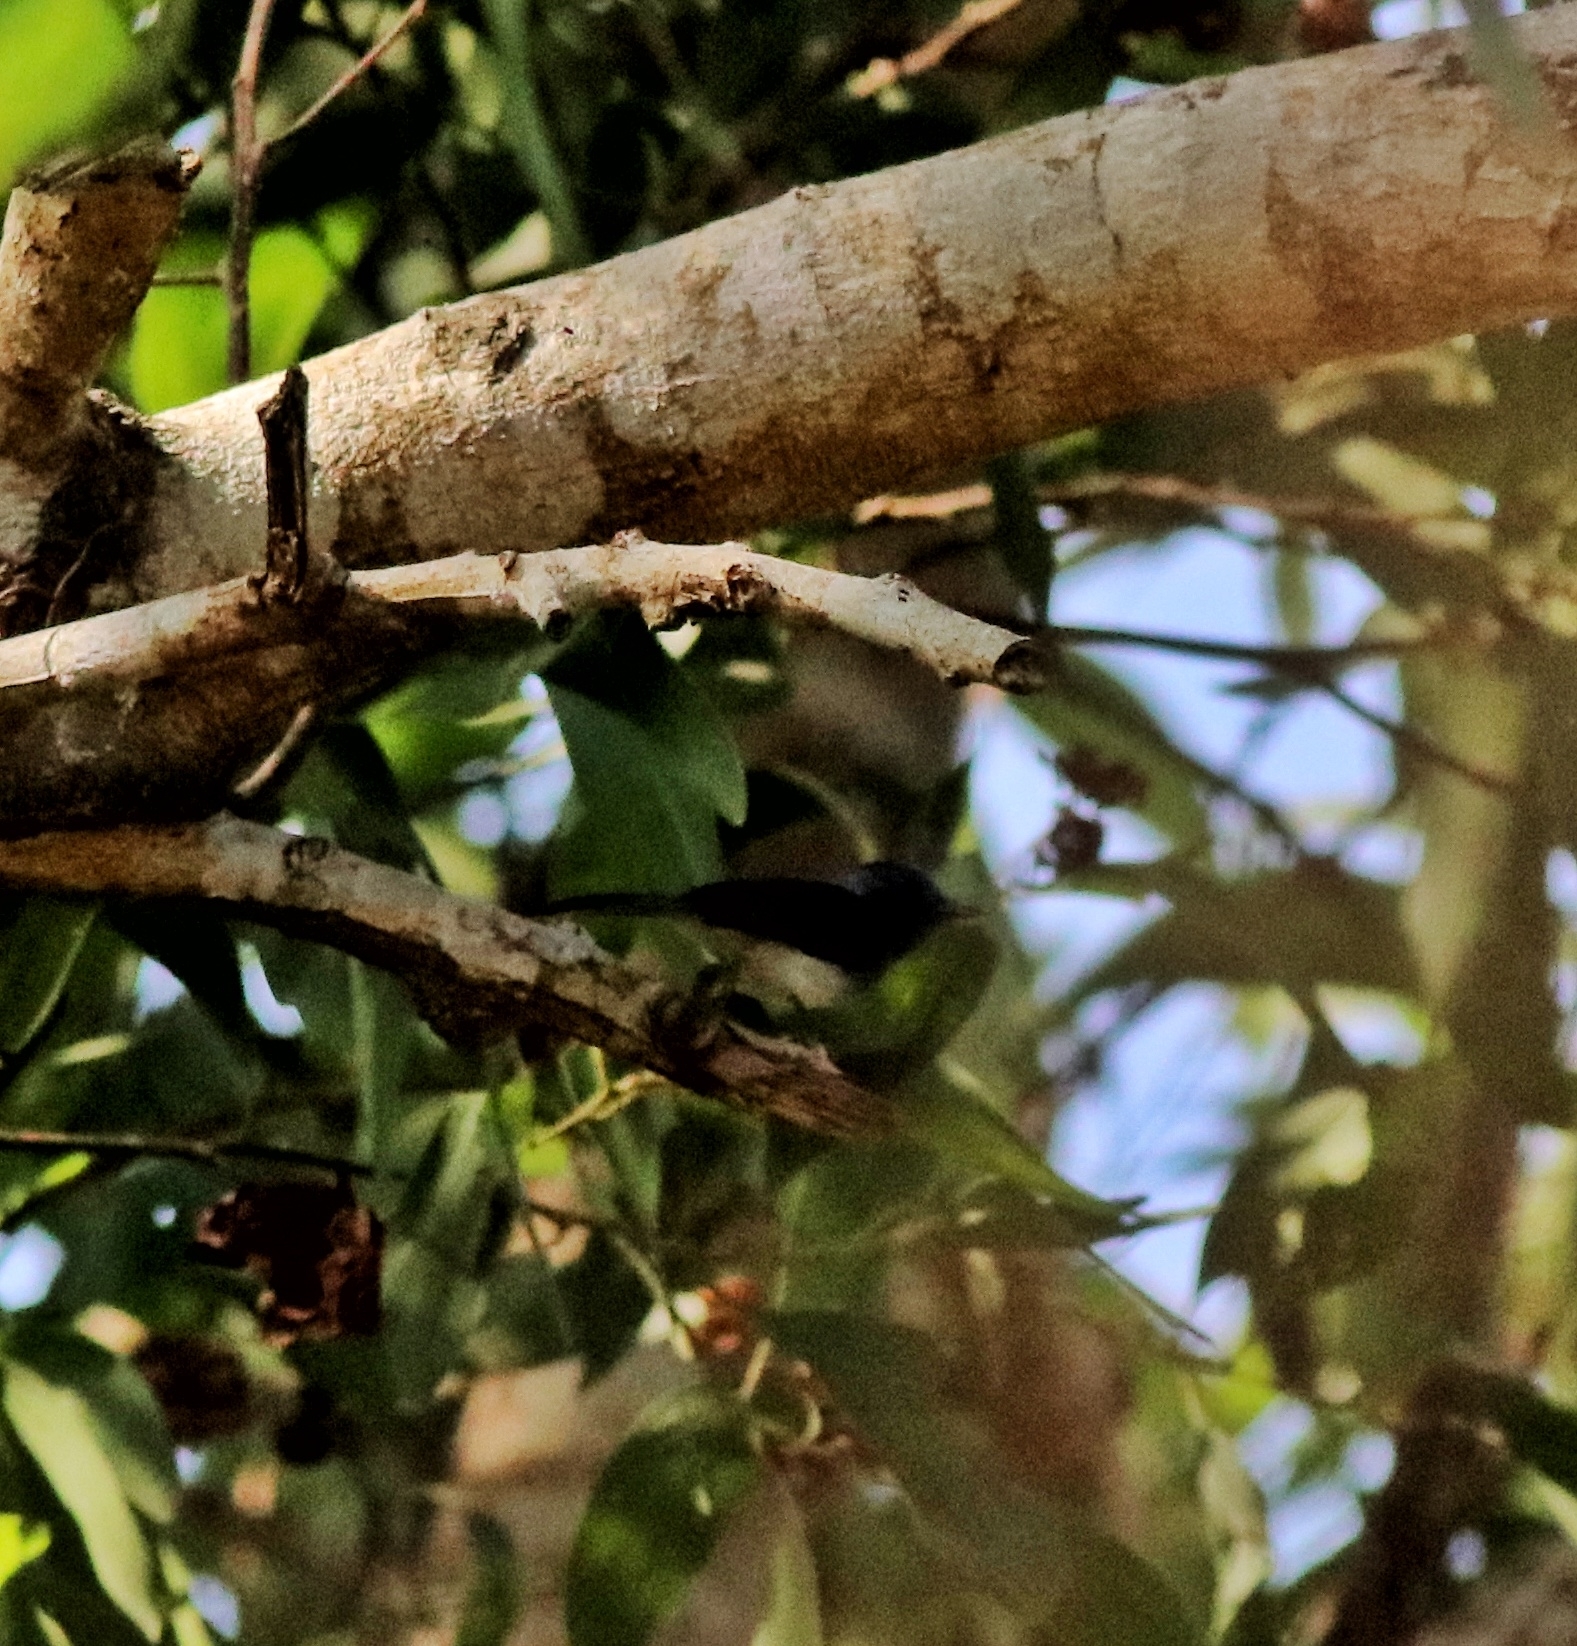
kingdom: Animalia
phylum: Chordata
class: Aves
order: Passeriformes
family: Nectariniidae
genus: Leptocoma
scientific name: Leptocoma zeylonica
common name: Purple-rumped sunbird
